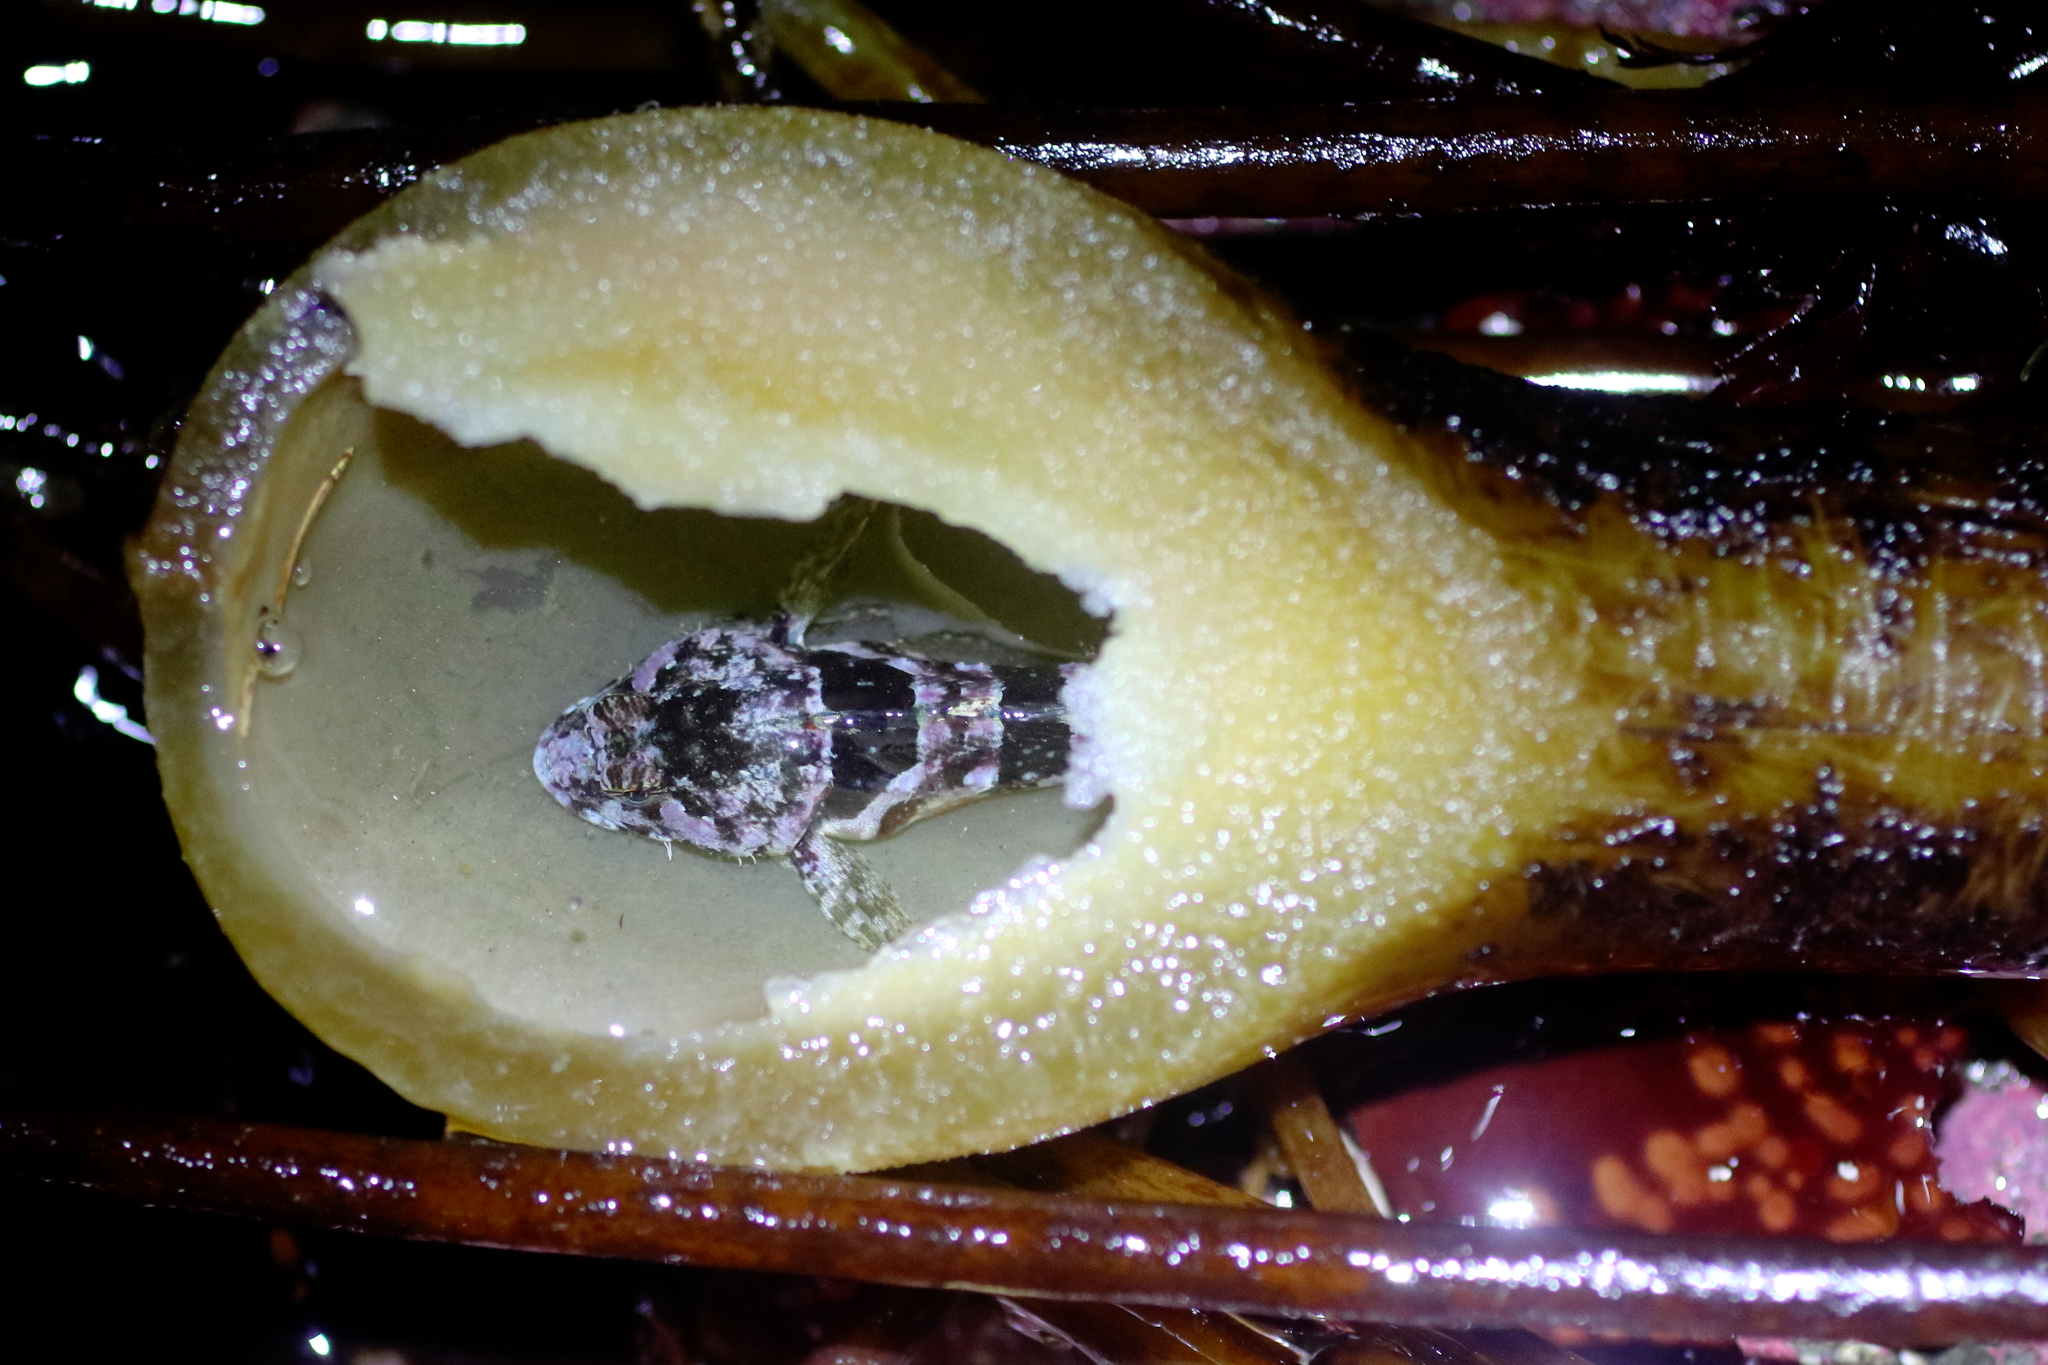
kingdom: Animalia
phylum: Chordata
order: Scorpaeniformes
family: Cottidae
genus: Artedius
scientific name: Artedius lateralis
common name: Smooth-head sculpin
